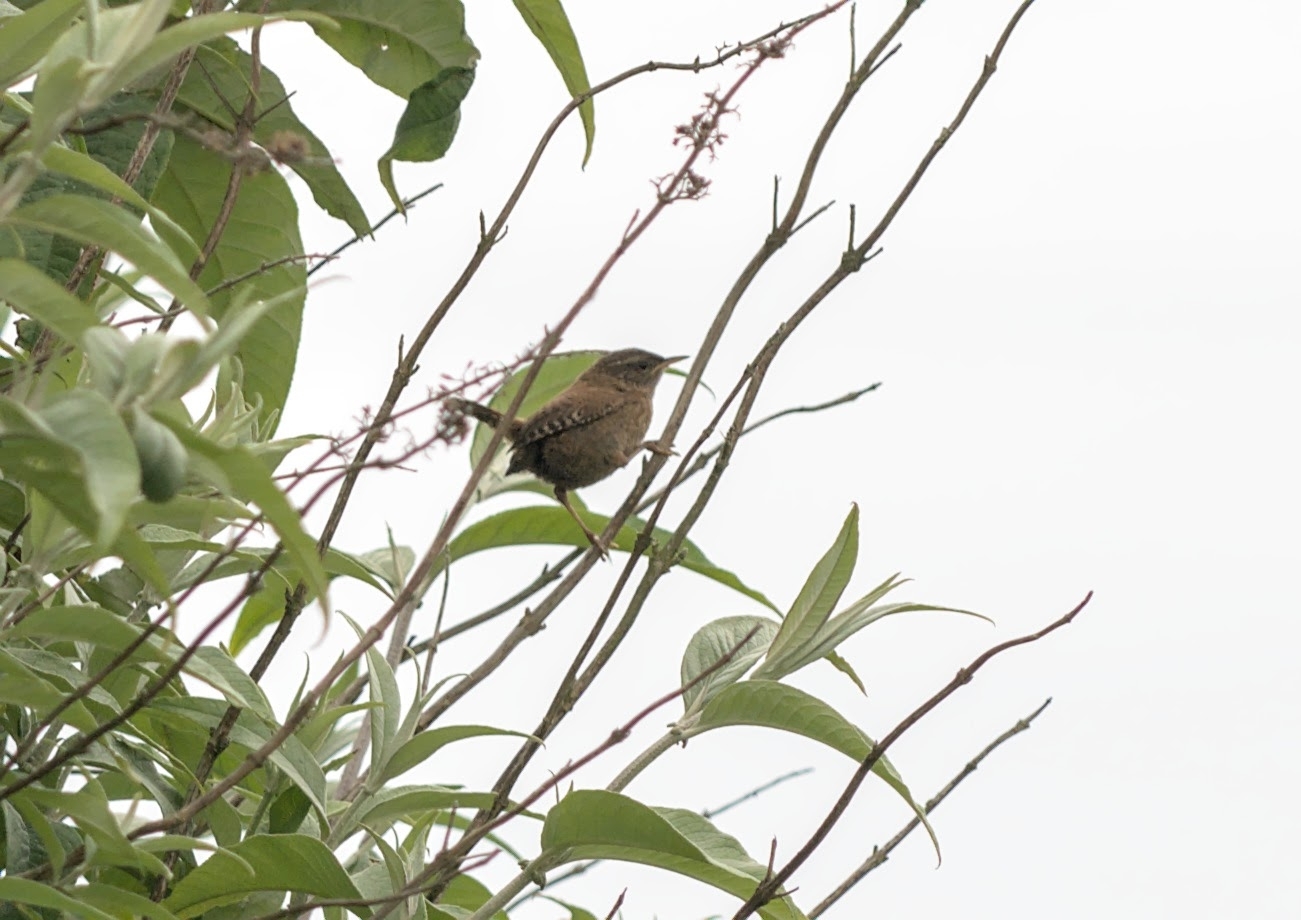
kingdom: Animalia
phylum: Chordata
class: Aves
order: Passeriformes
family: Troglodytidae
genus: Troglodytes
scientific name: Troglodytes troglodytes
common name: Eurasian wren
